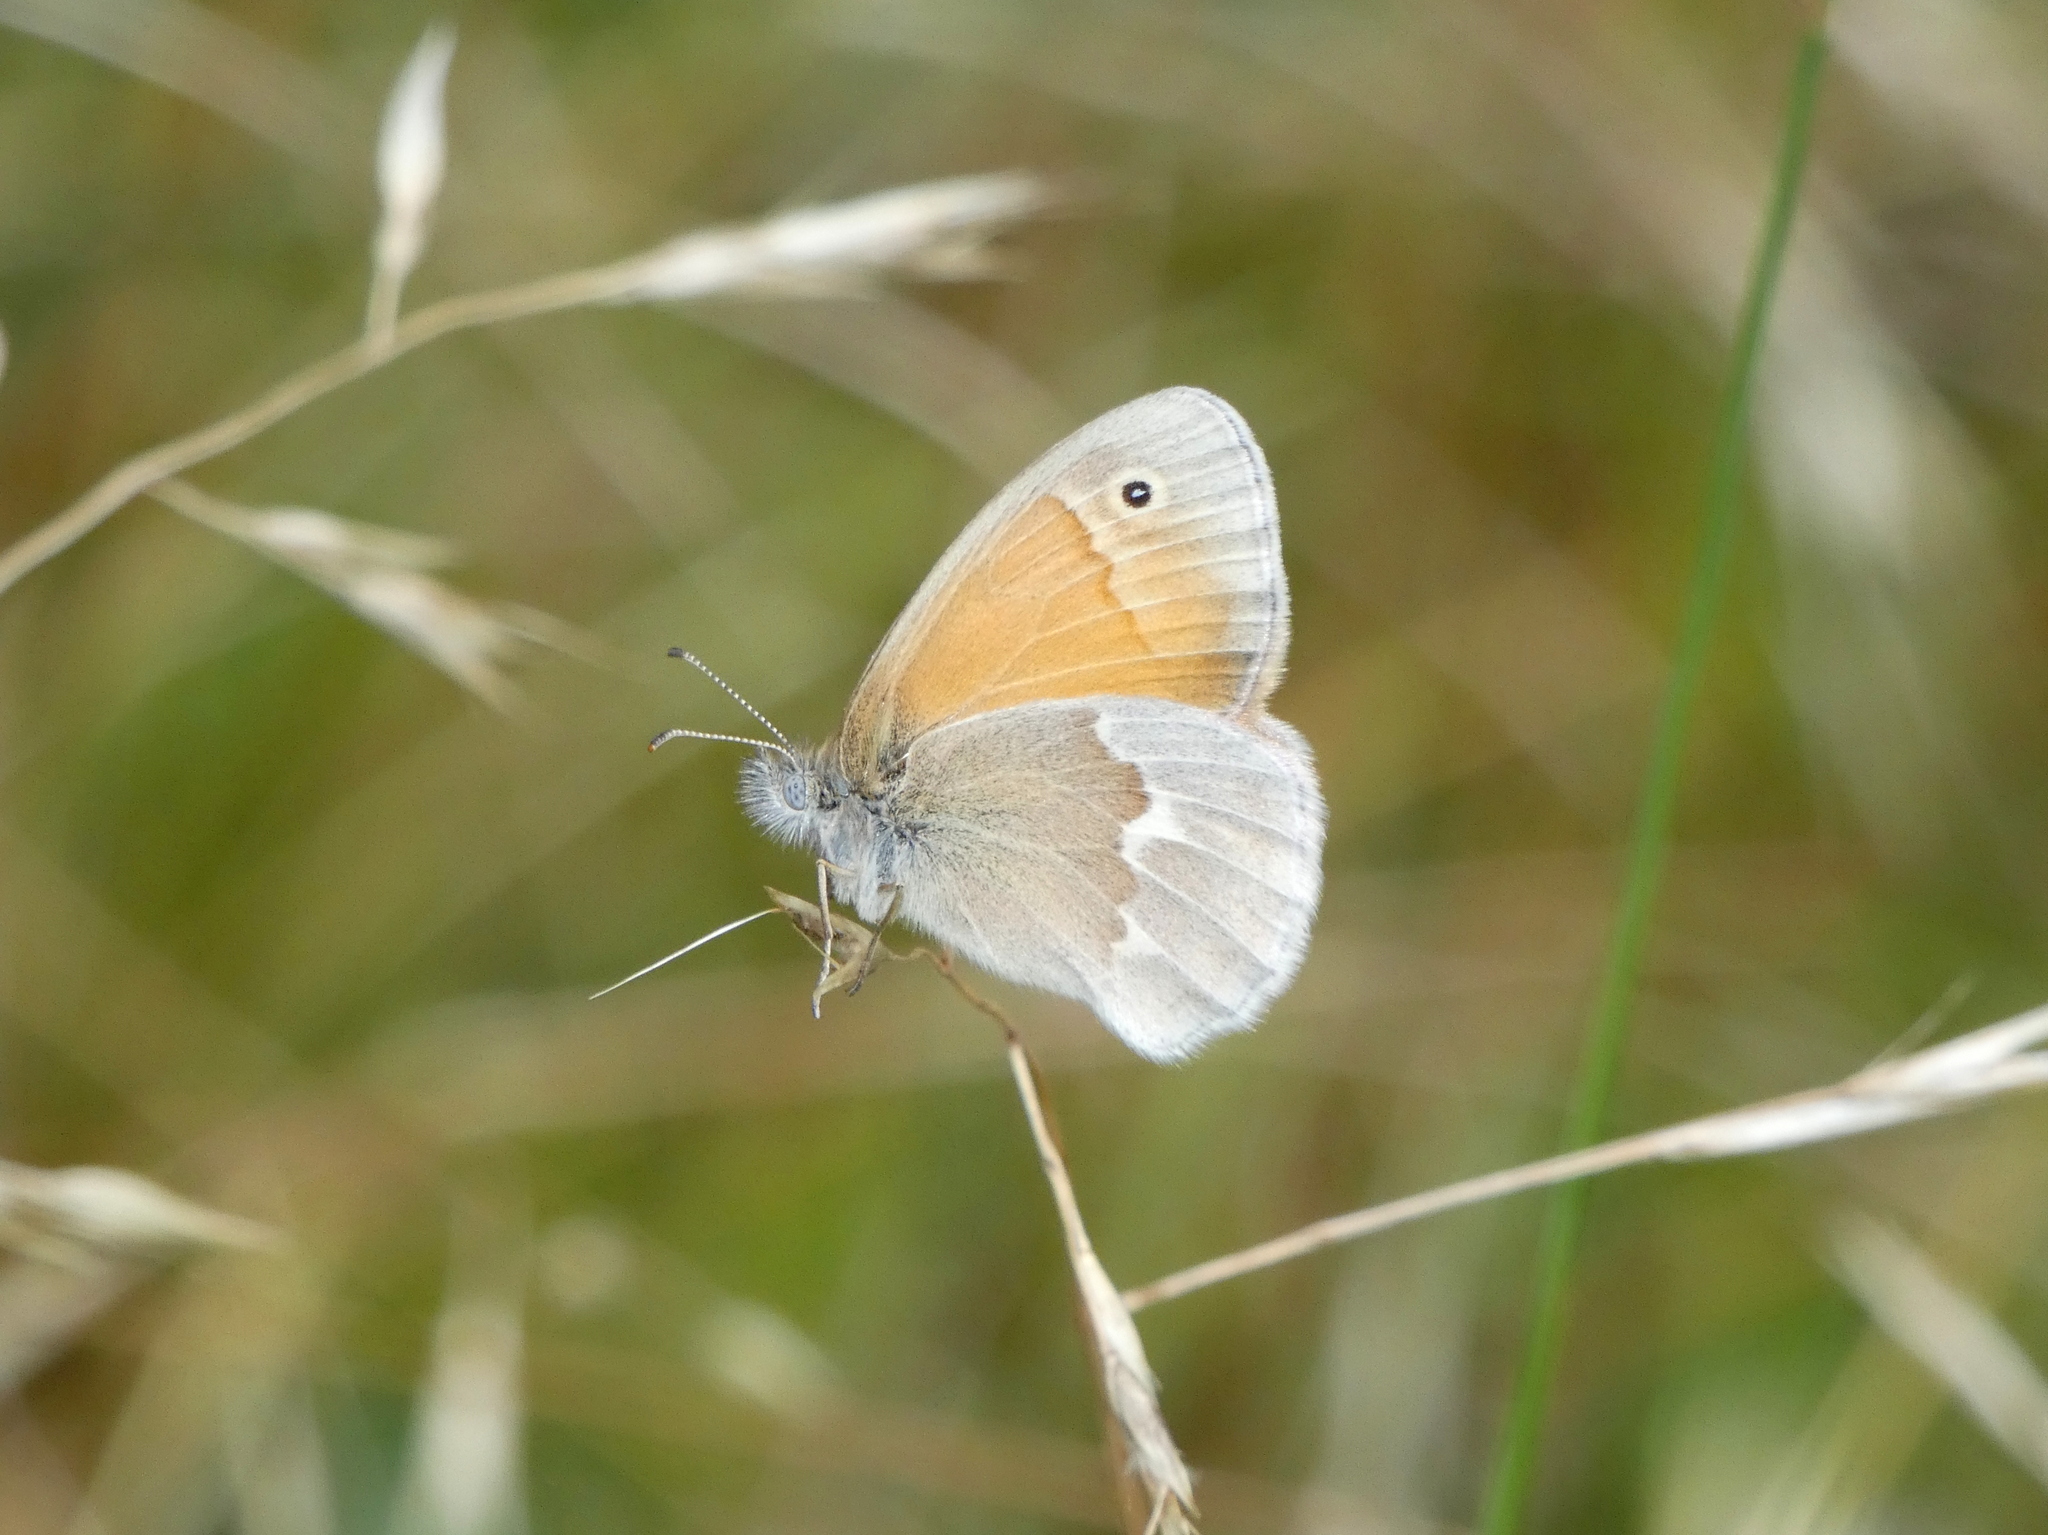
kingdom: Animalia
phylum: Arthropoda
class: Insecta
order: Lepidoptera
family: Nymphalidae
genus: Coenonympha
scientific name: Coenonympha california
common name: Common ringlet
